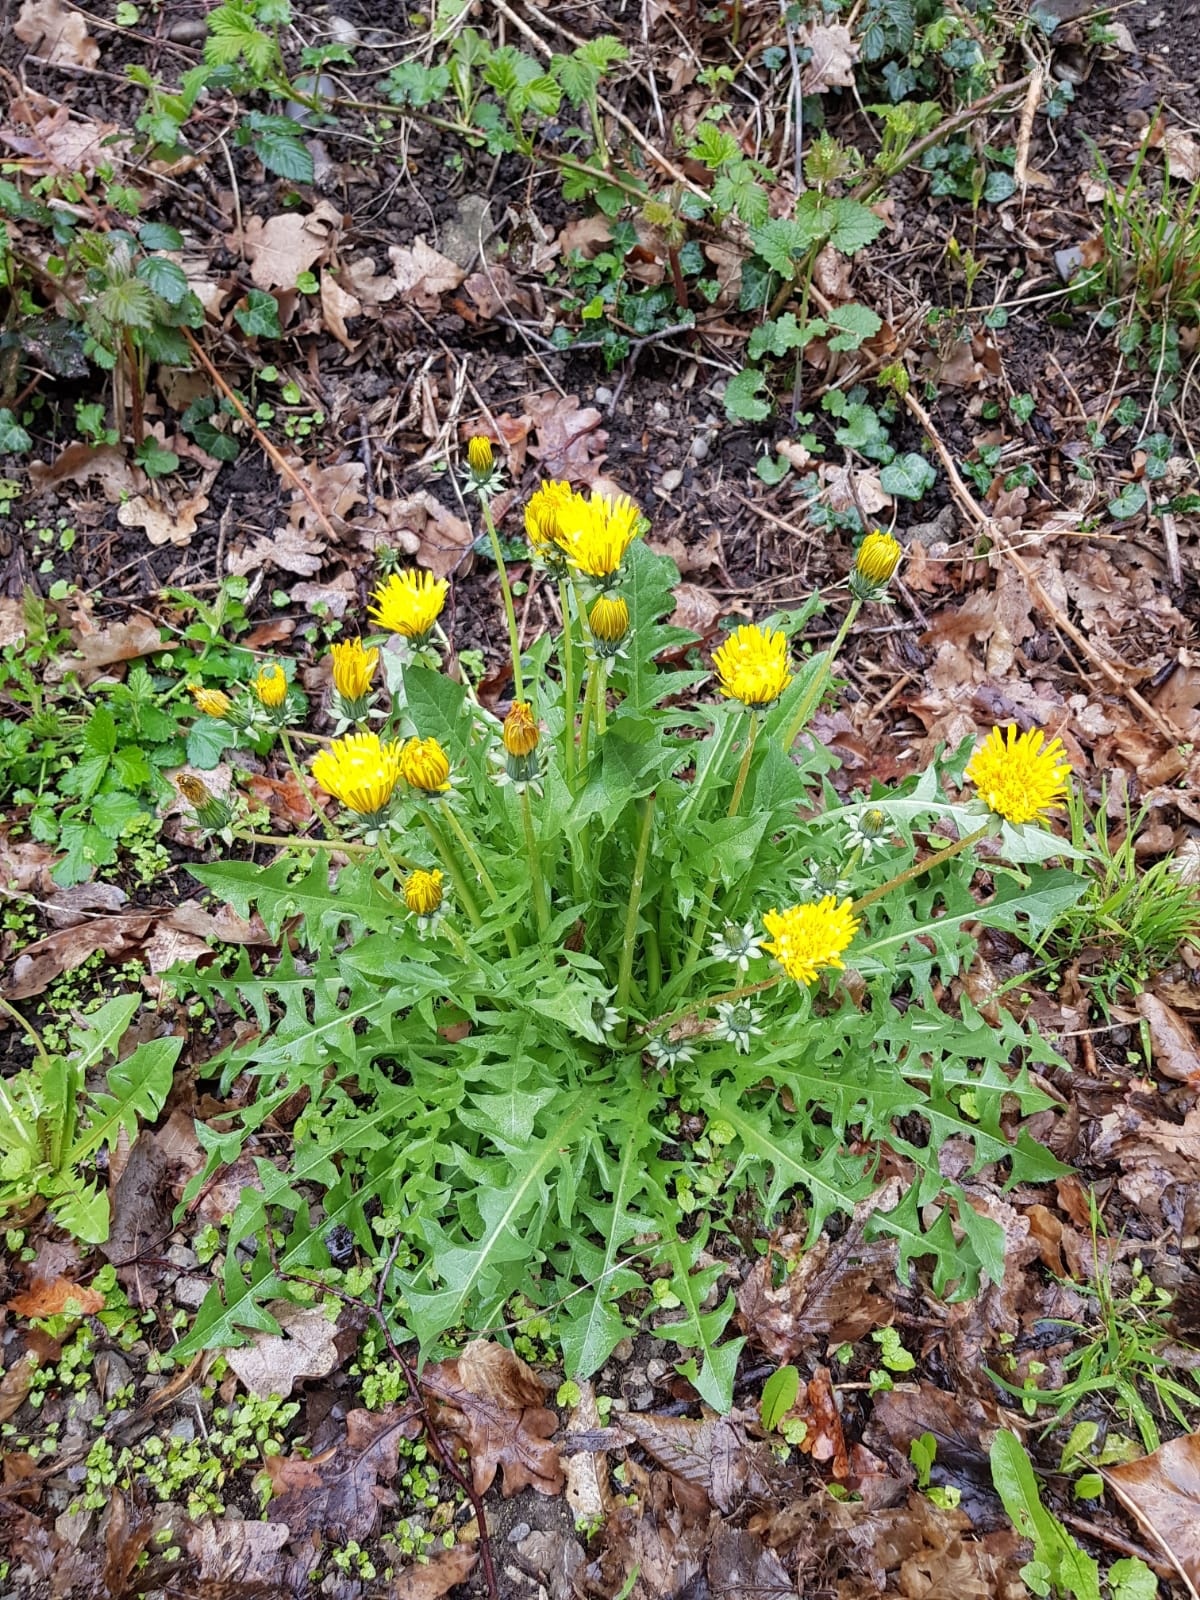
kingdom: Plantae
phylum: Tracheophyta
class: Magnoliopsida
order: Asterales
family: Asteraceae
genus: Taraxacum
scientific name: Taraxacum officinale
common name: Common dandelion
